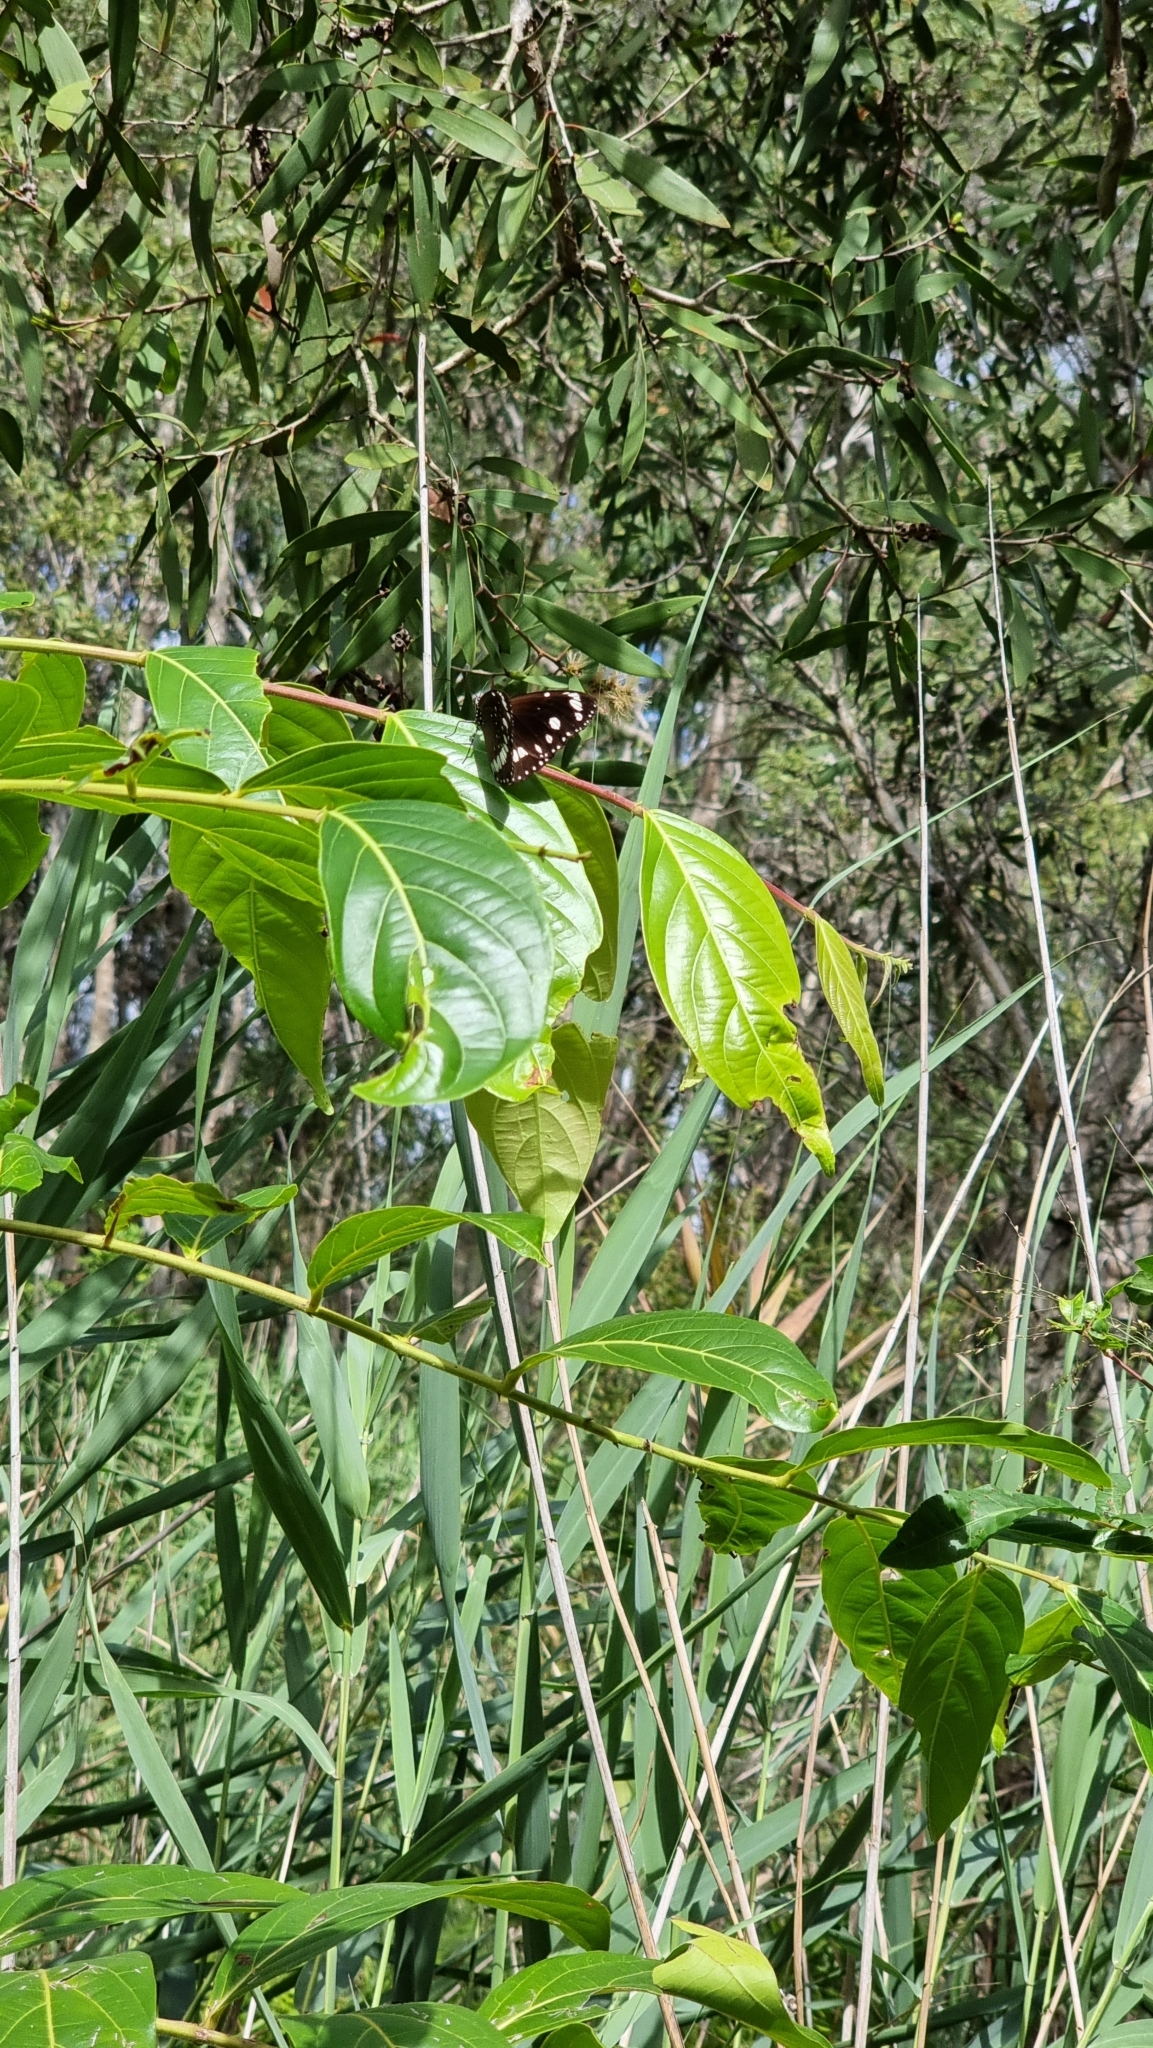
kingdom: Animalia
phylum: Arthropoda
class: Insecta
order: Lepidoptera
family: Nymphalidae
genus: Euploea
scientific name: Euploea core
